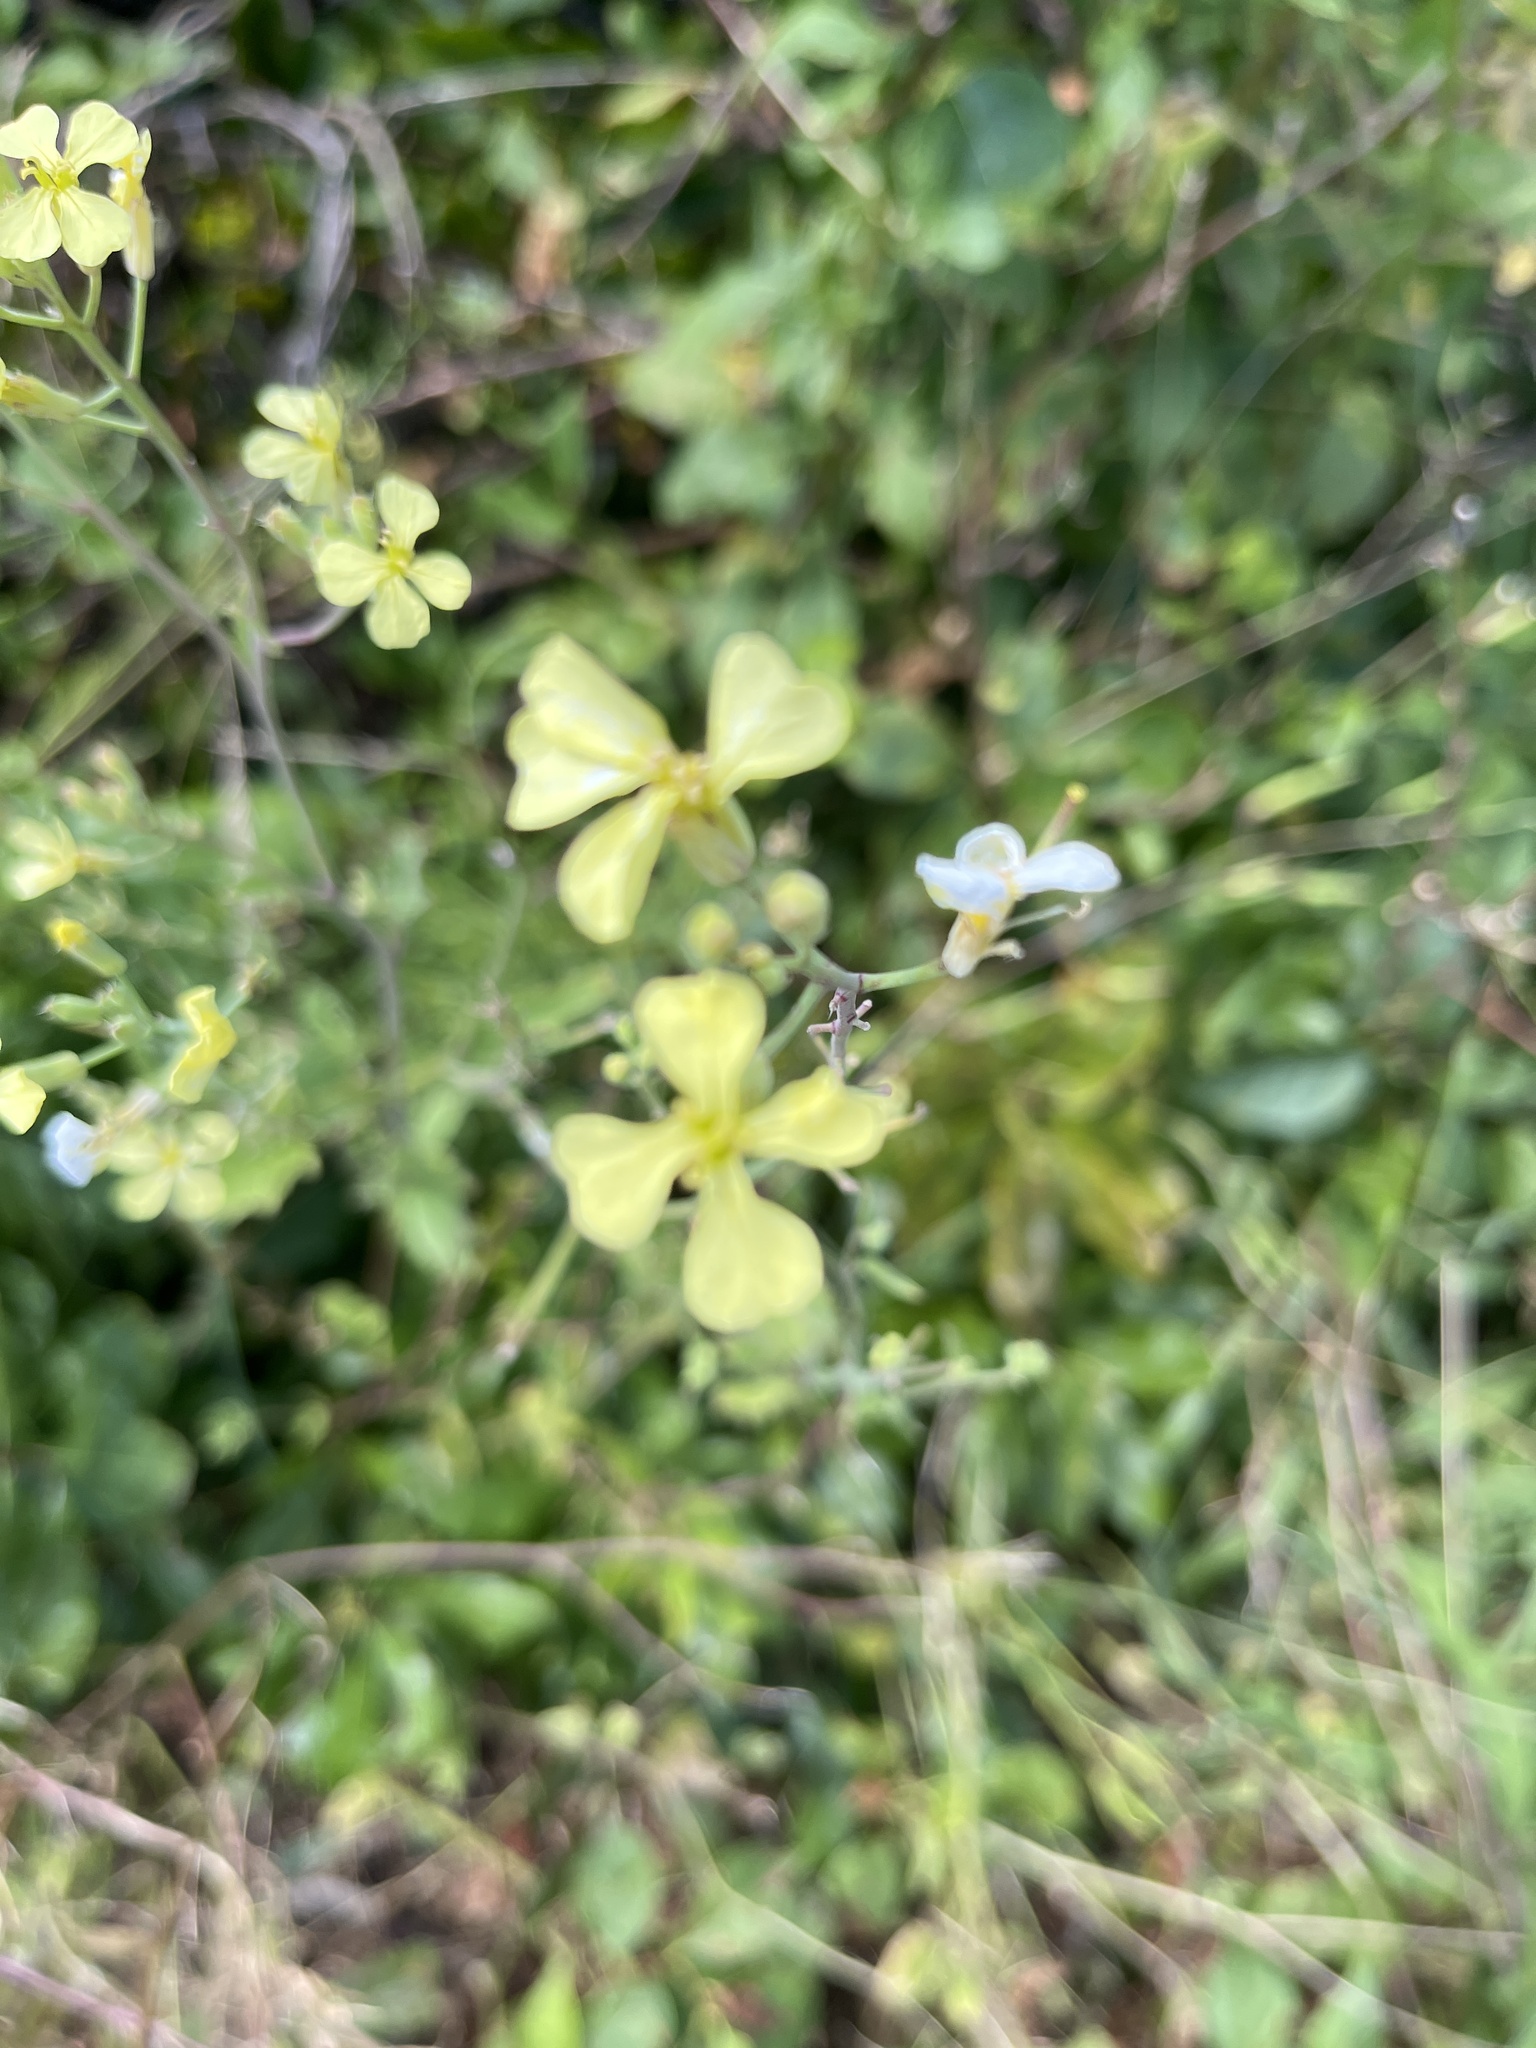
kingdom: Plantae
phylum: Tracheophyta
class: Magnoliopsida
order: Brassicales
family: Brassicaceae
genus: Raphanus
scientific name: Raphanus raphanistrum
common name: Wild radish
